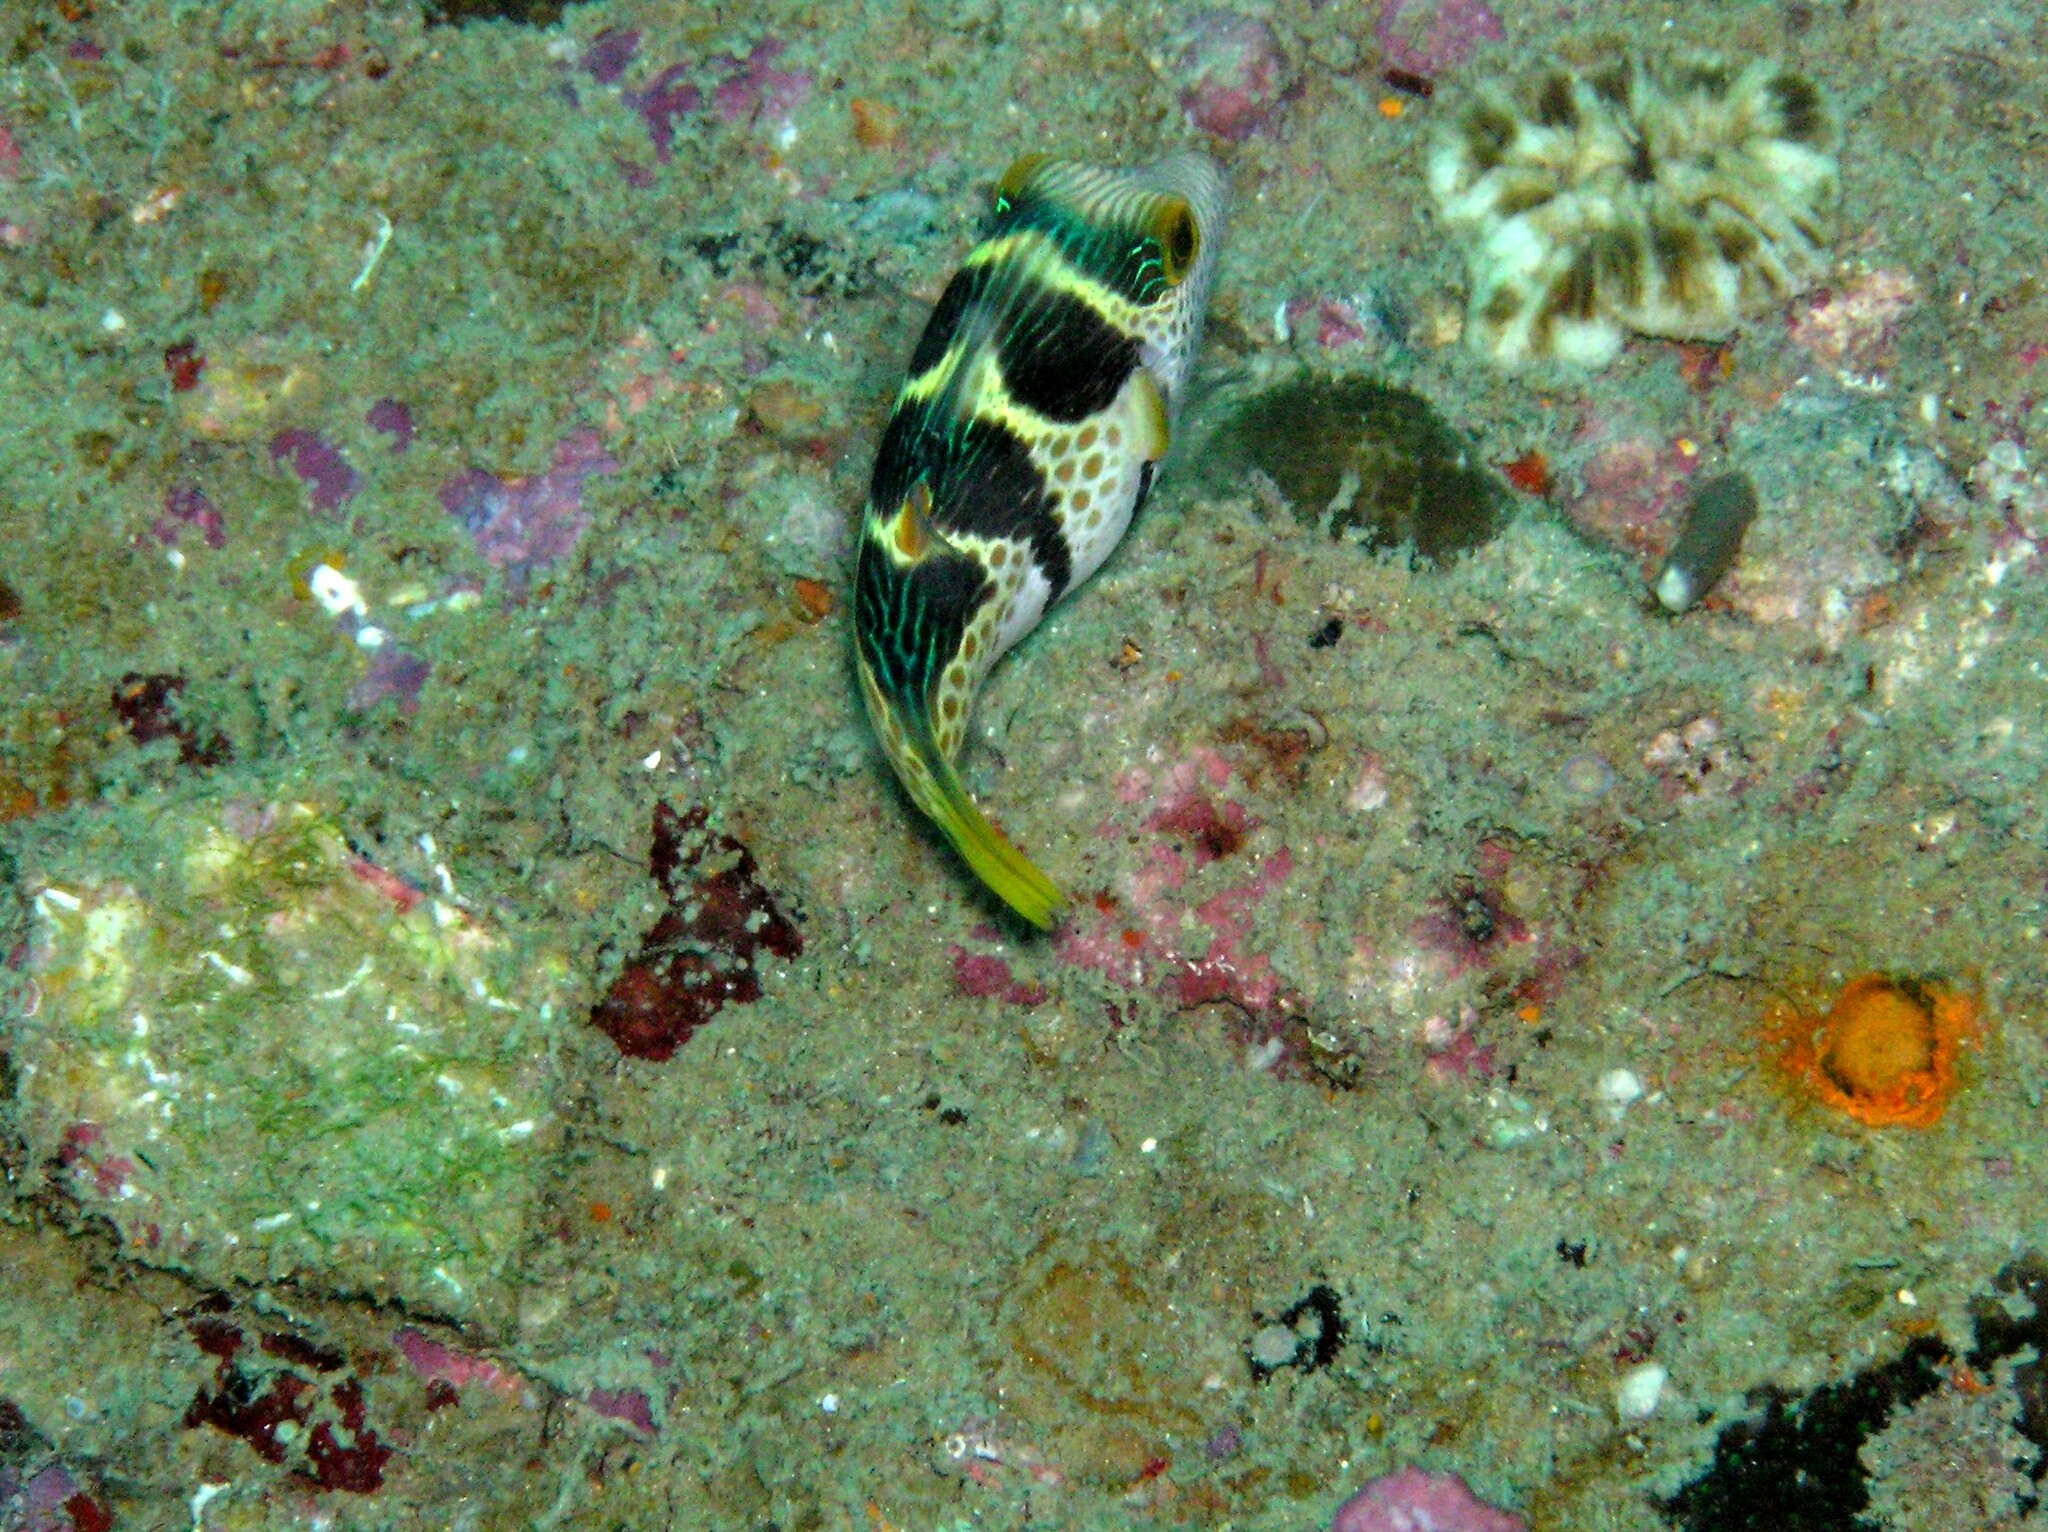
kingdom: Animalia
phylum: Chordata
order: Tetraodontiformes
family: Tetraodontidae
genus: Canthigaster
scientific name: Canthigaster valentini
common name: Banded toby
